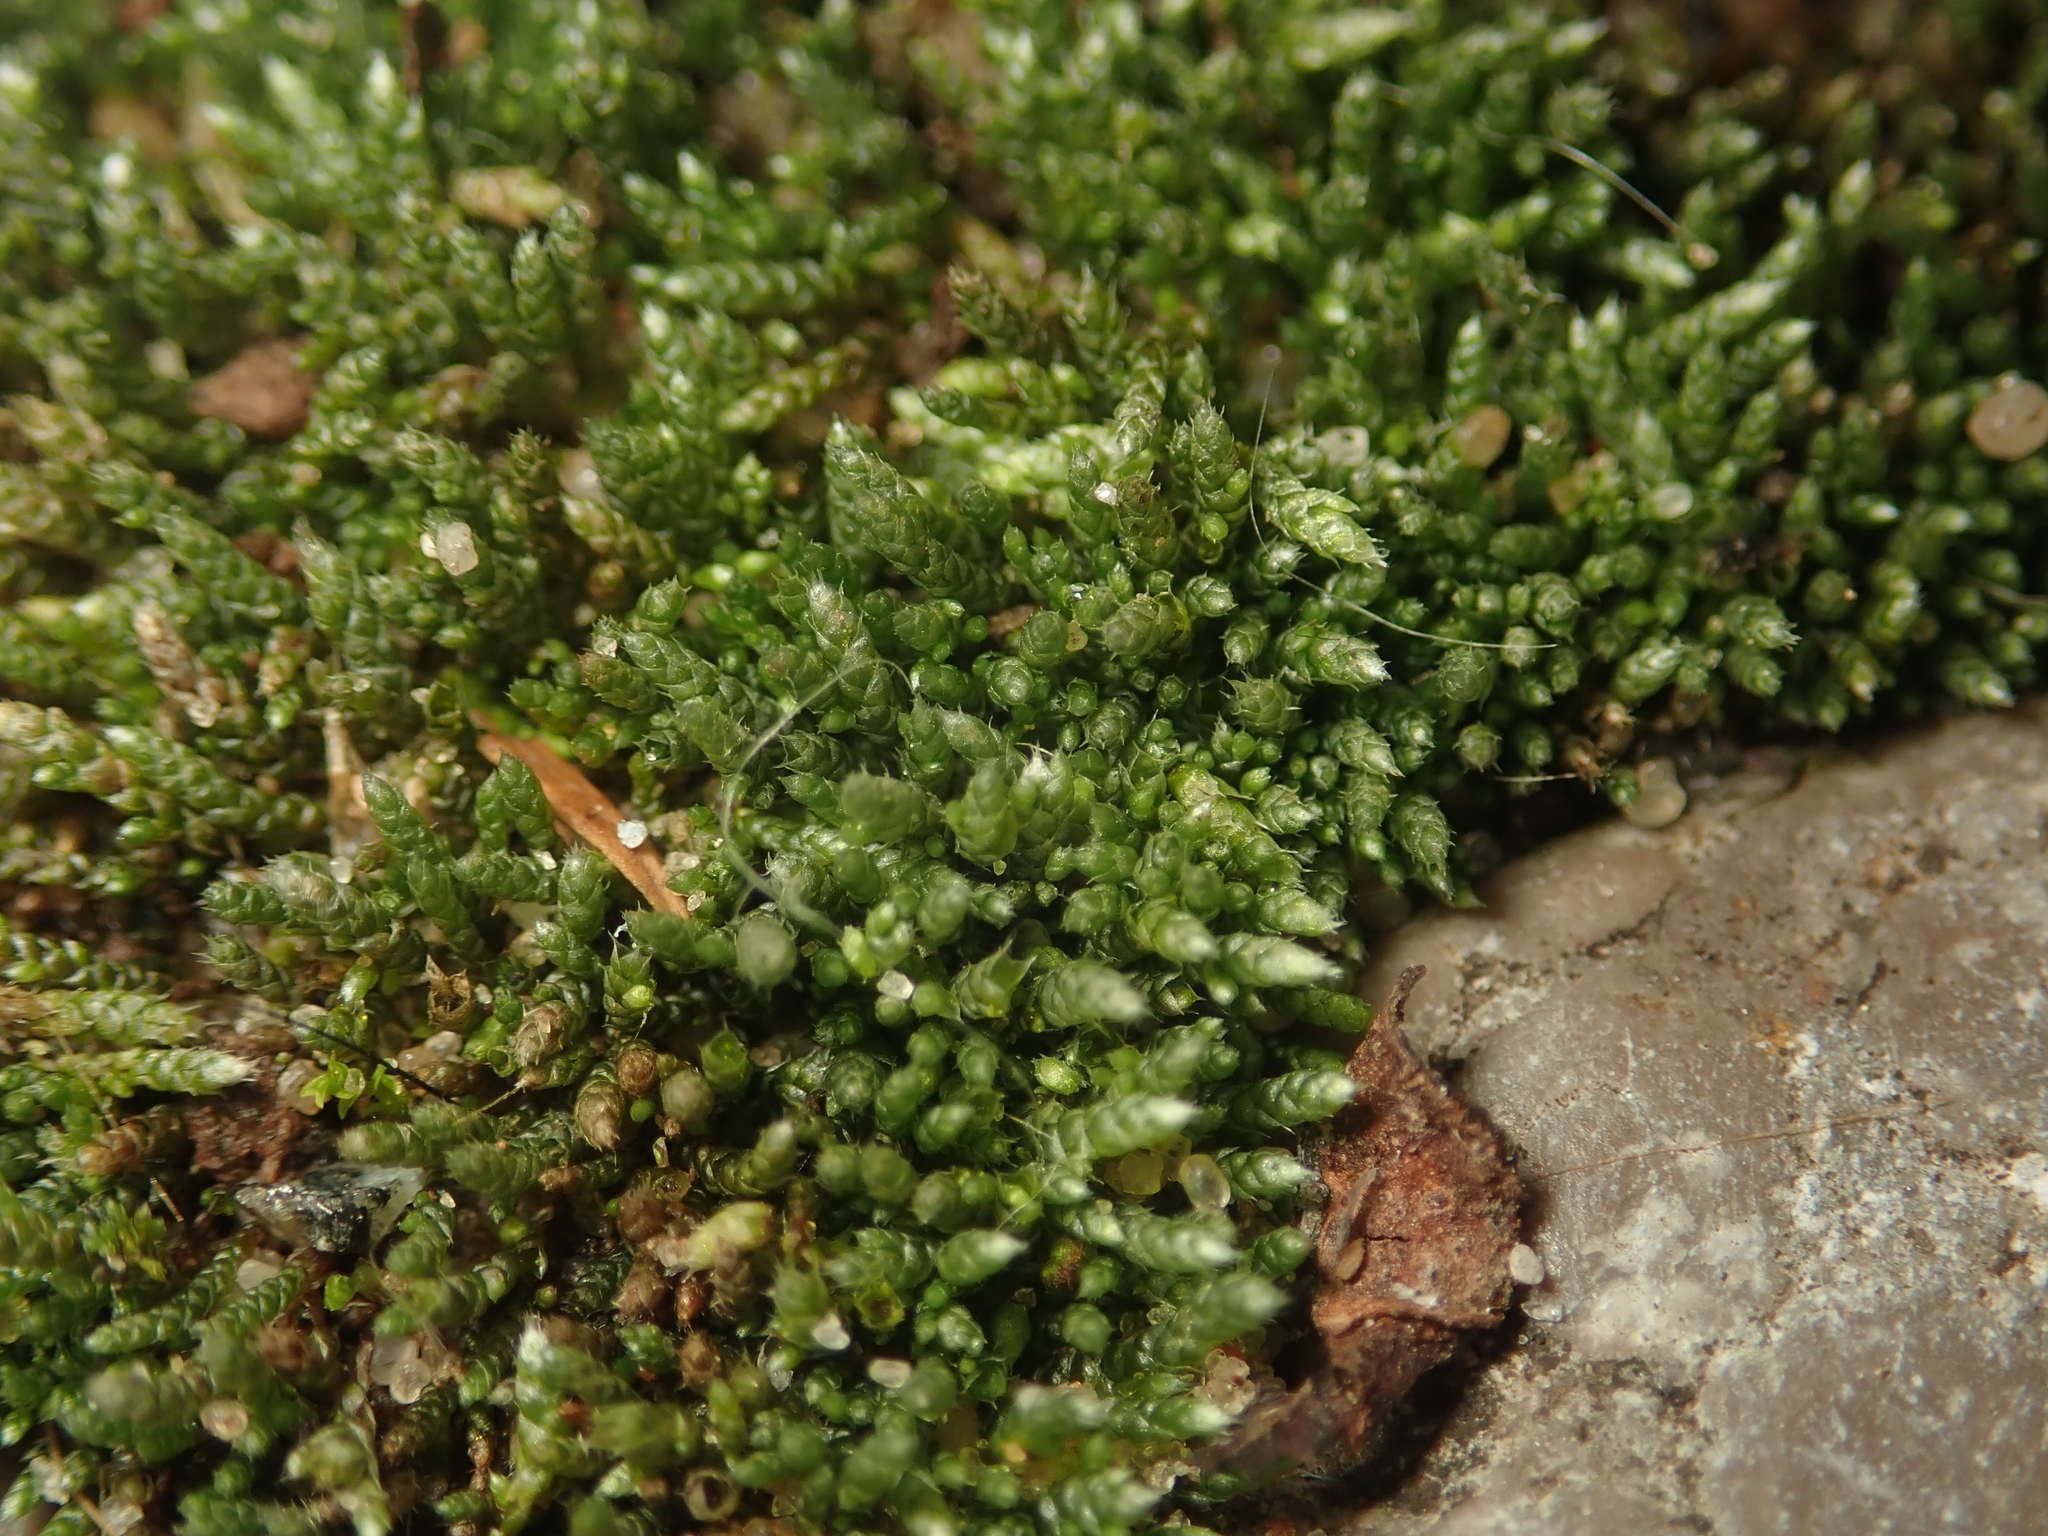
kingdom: Plantae
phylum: Bryophyta
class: Bryopsida
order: Bryales
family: Bryaceae
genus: Bryum
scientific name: Bryum argenteum
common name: Silver-moss
